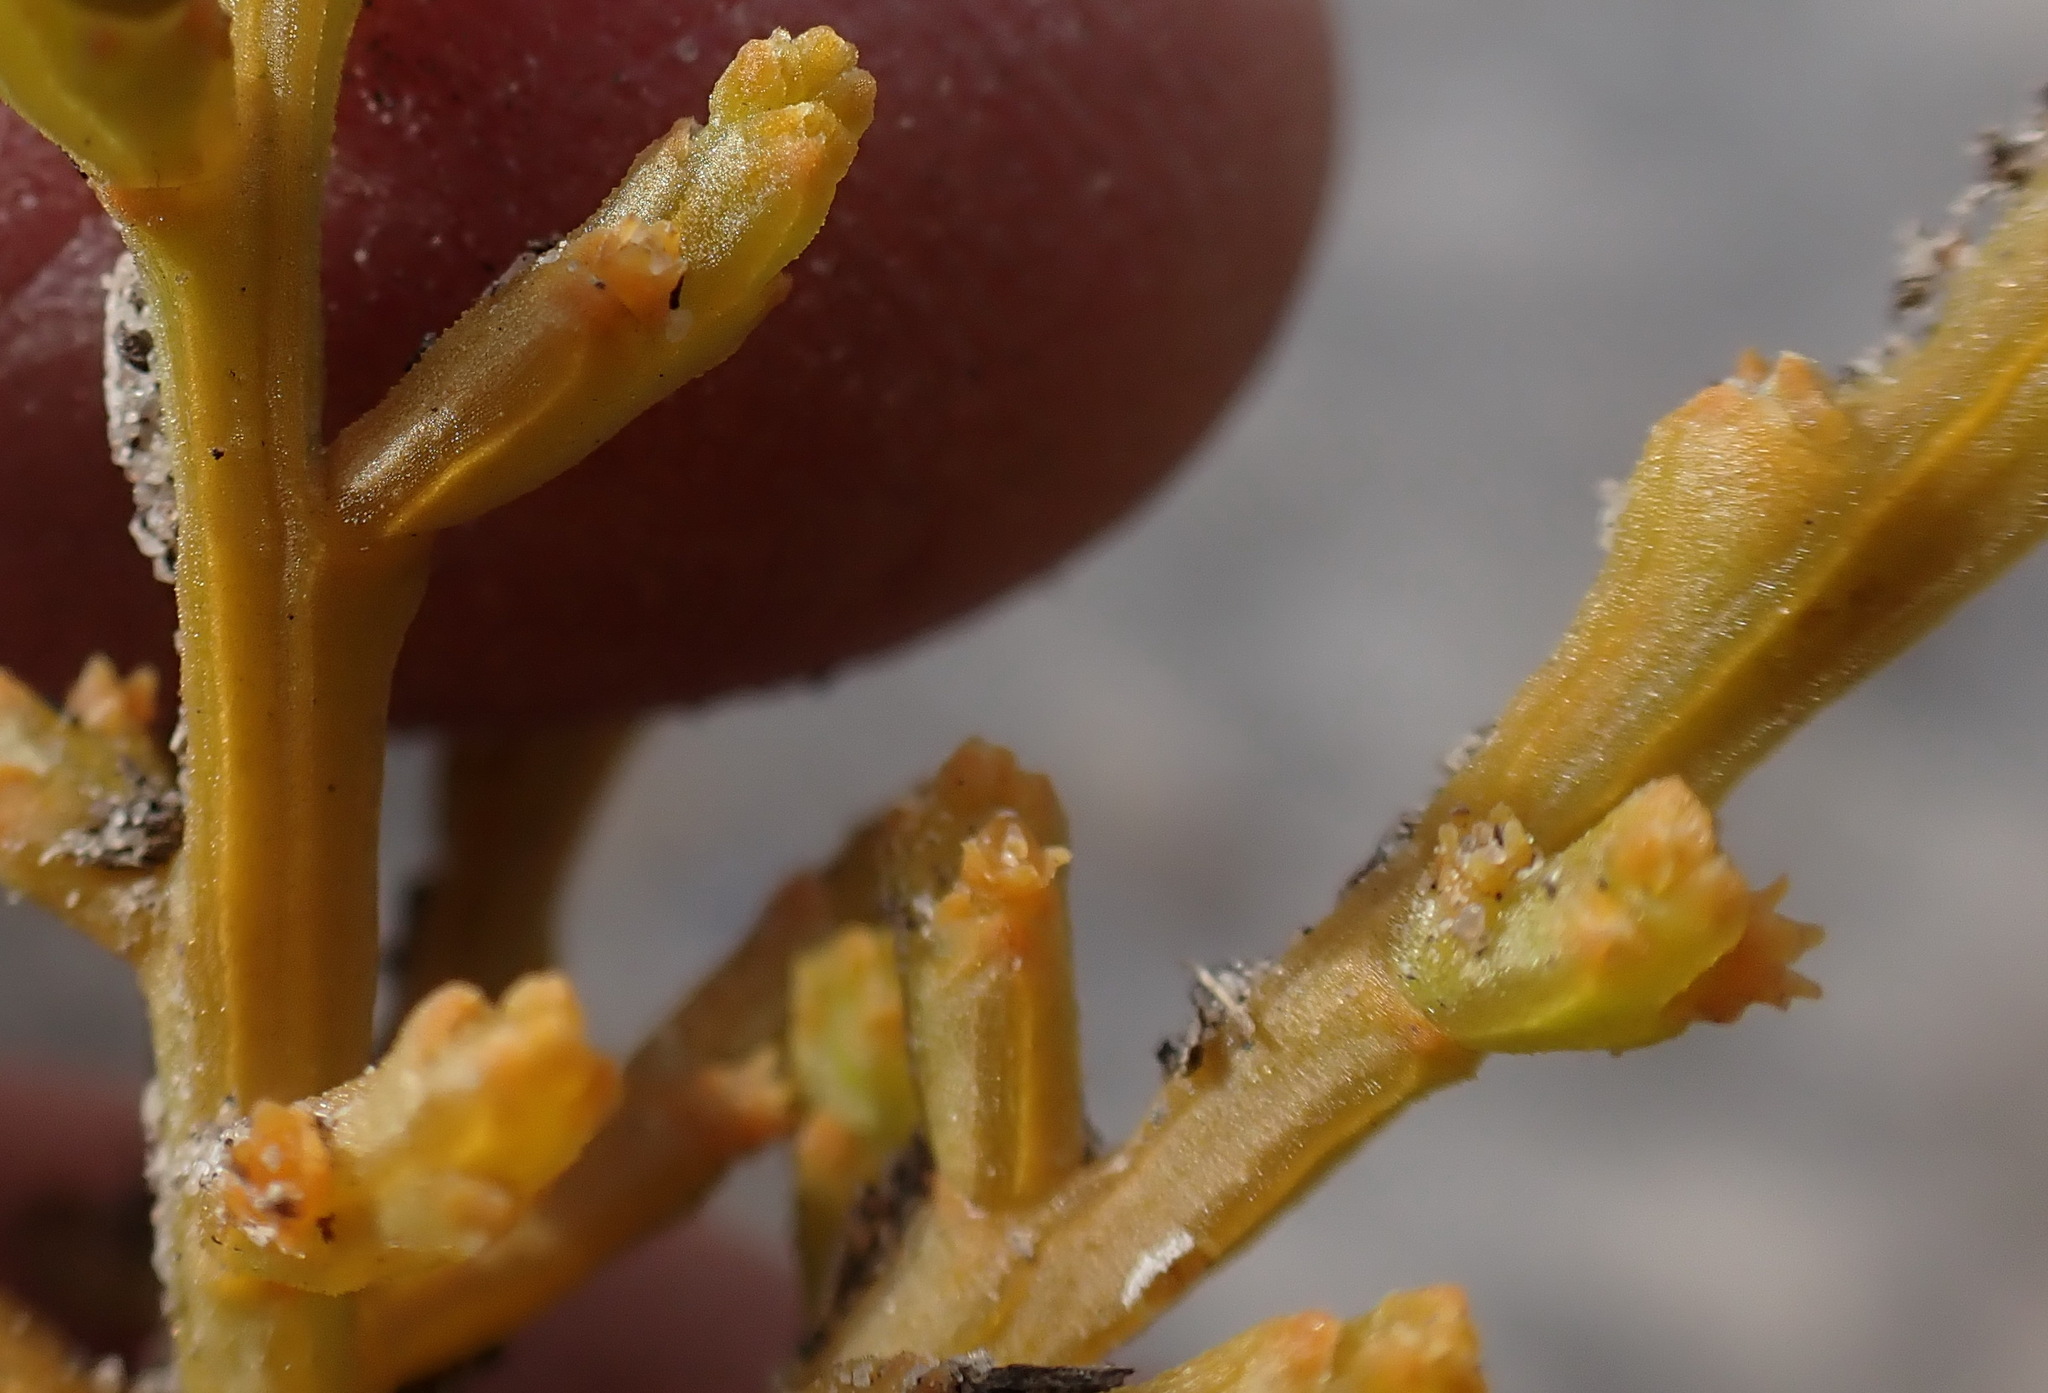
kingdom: Plantae
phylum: Tracheophyta
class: Magnoliopsida
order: Santalales
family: Thesiaceae
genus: Thesium
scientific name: Thesium fragile
